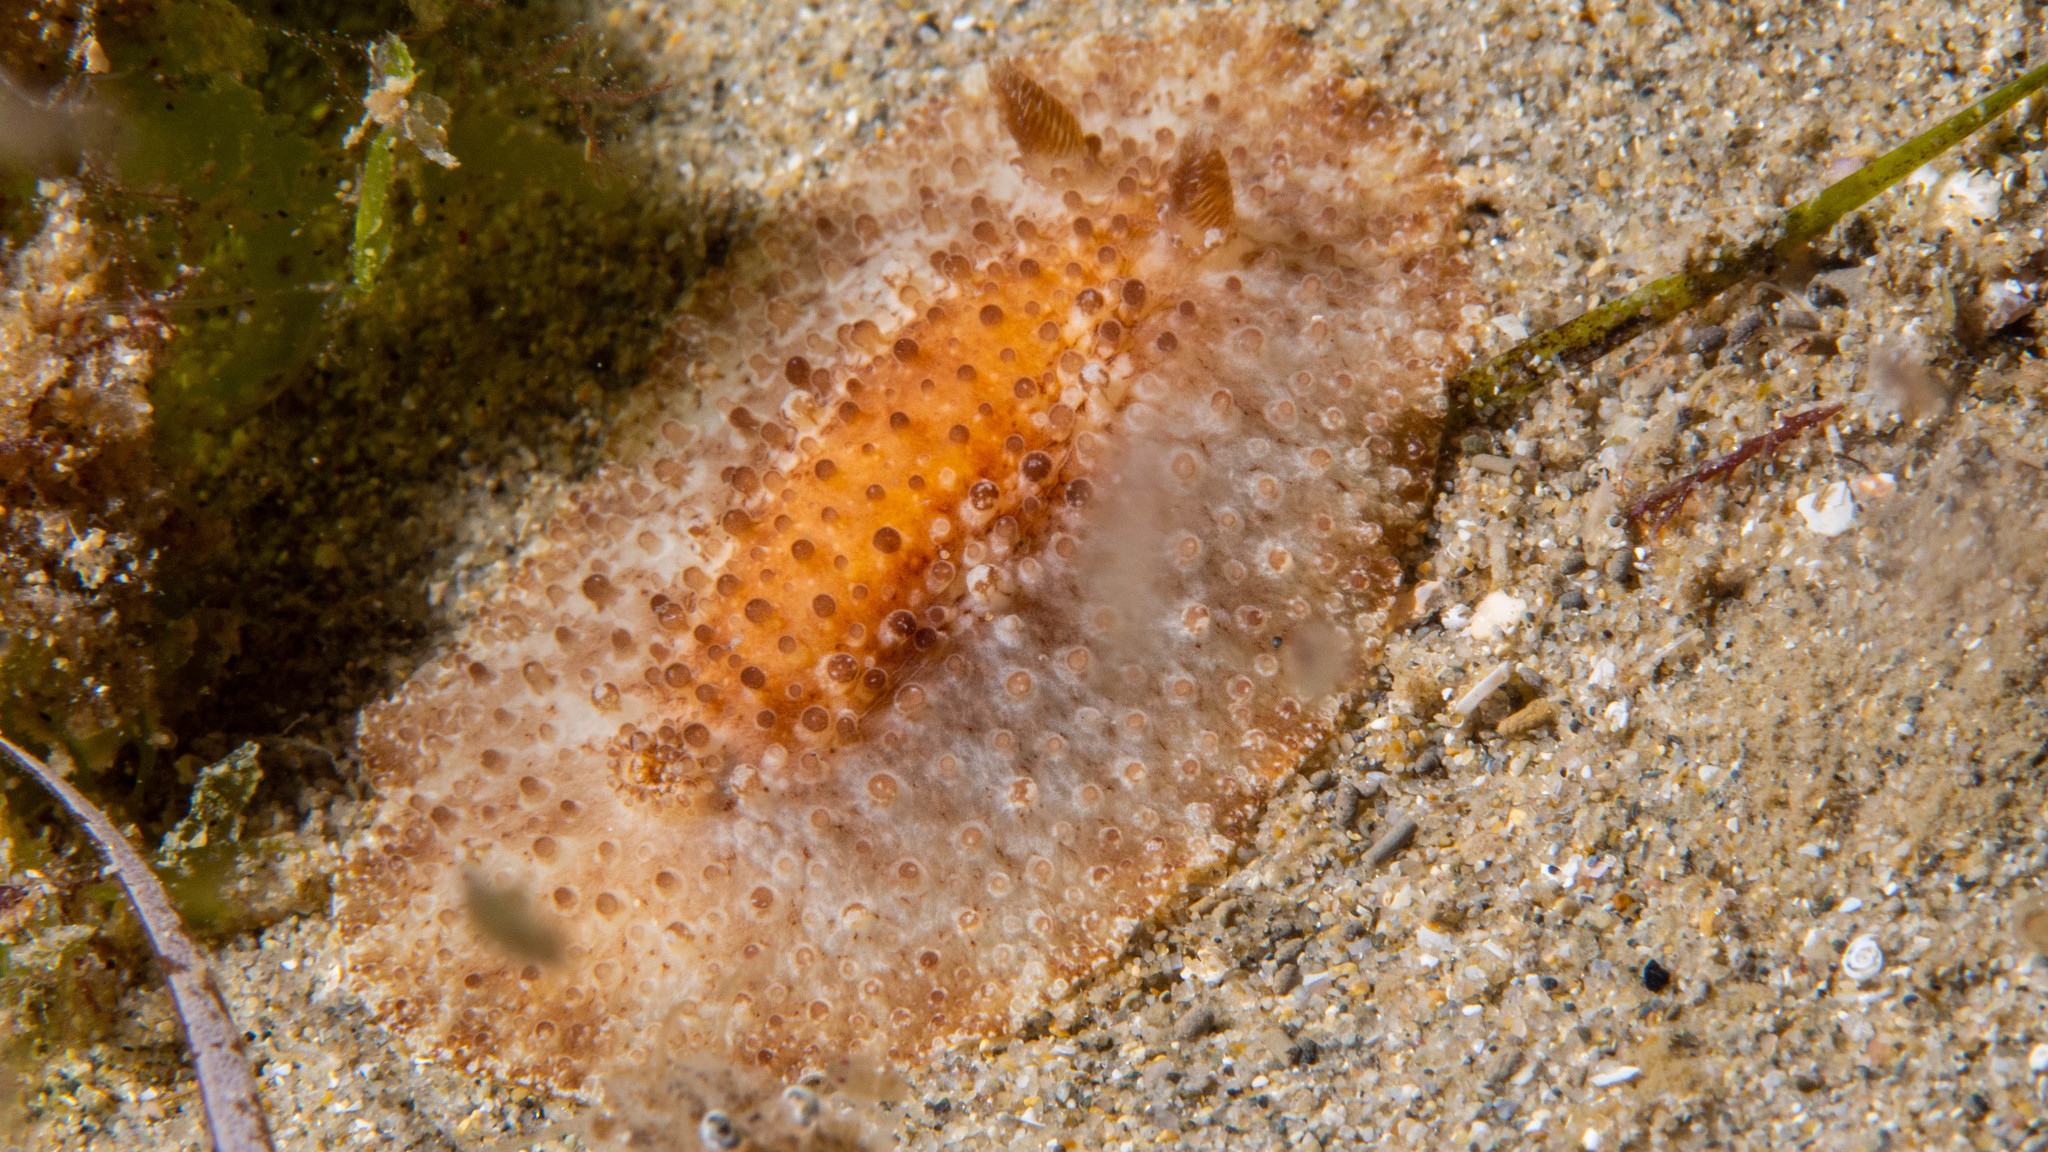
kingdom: Animalia
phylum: Mollusca
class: Gastropoda
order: Nudibranchia
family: Discodorididae
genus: Carminodoris
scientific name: Carminodoris nodulosa
